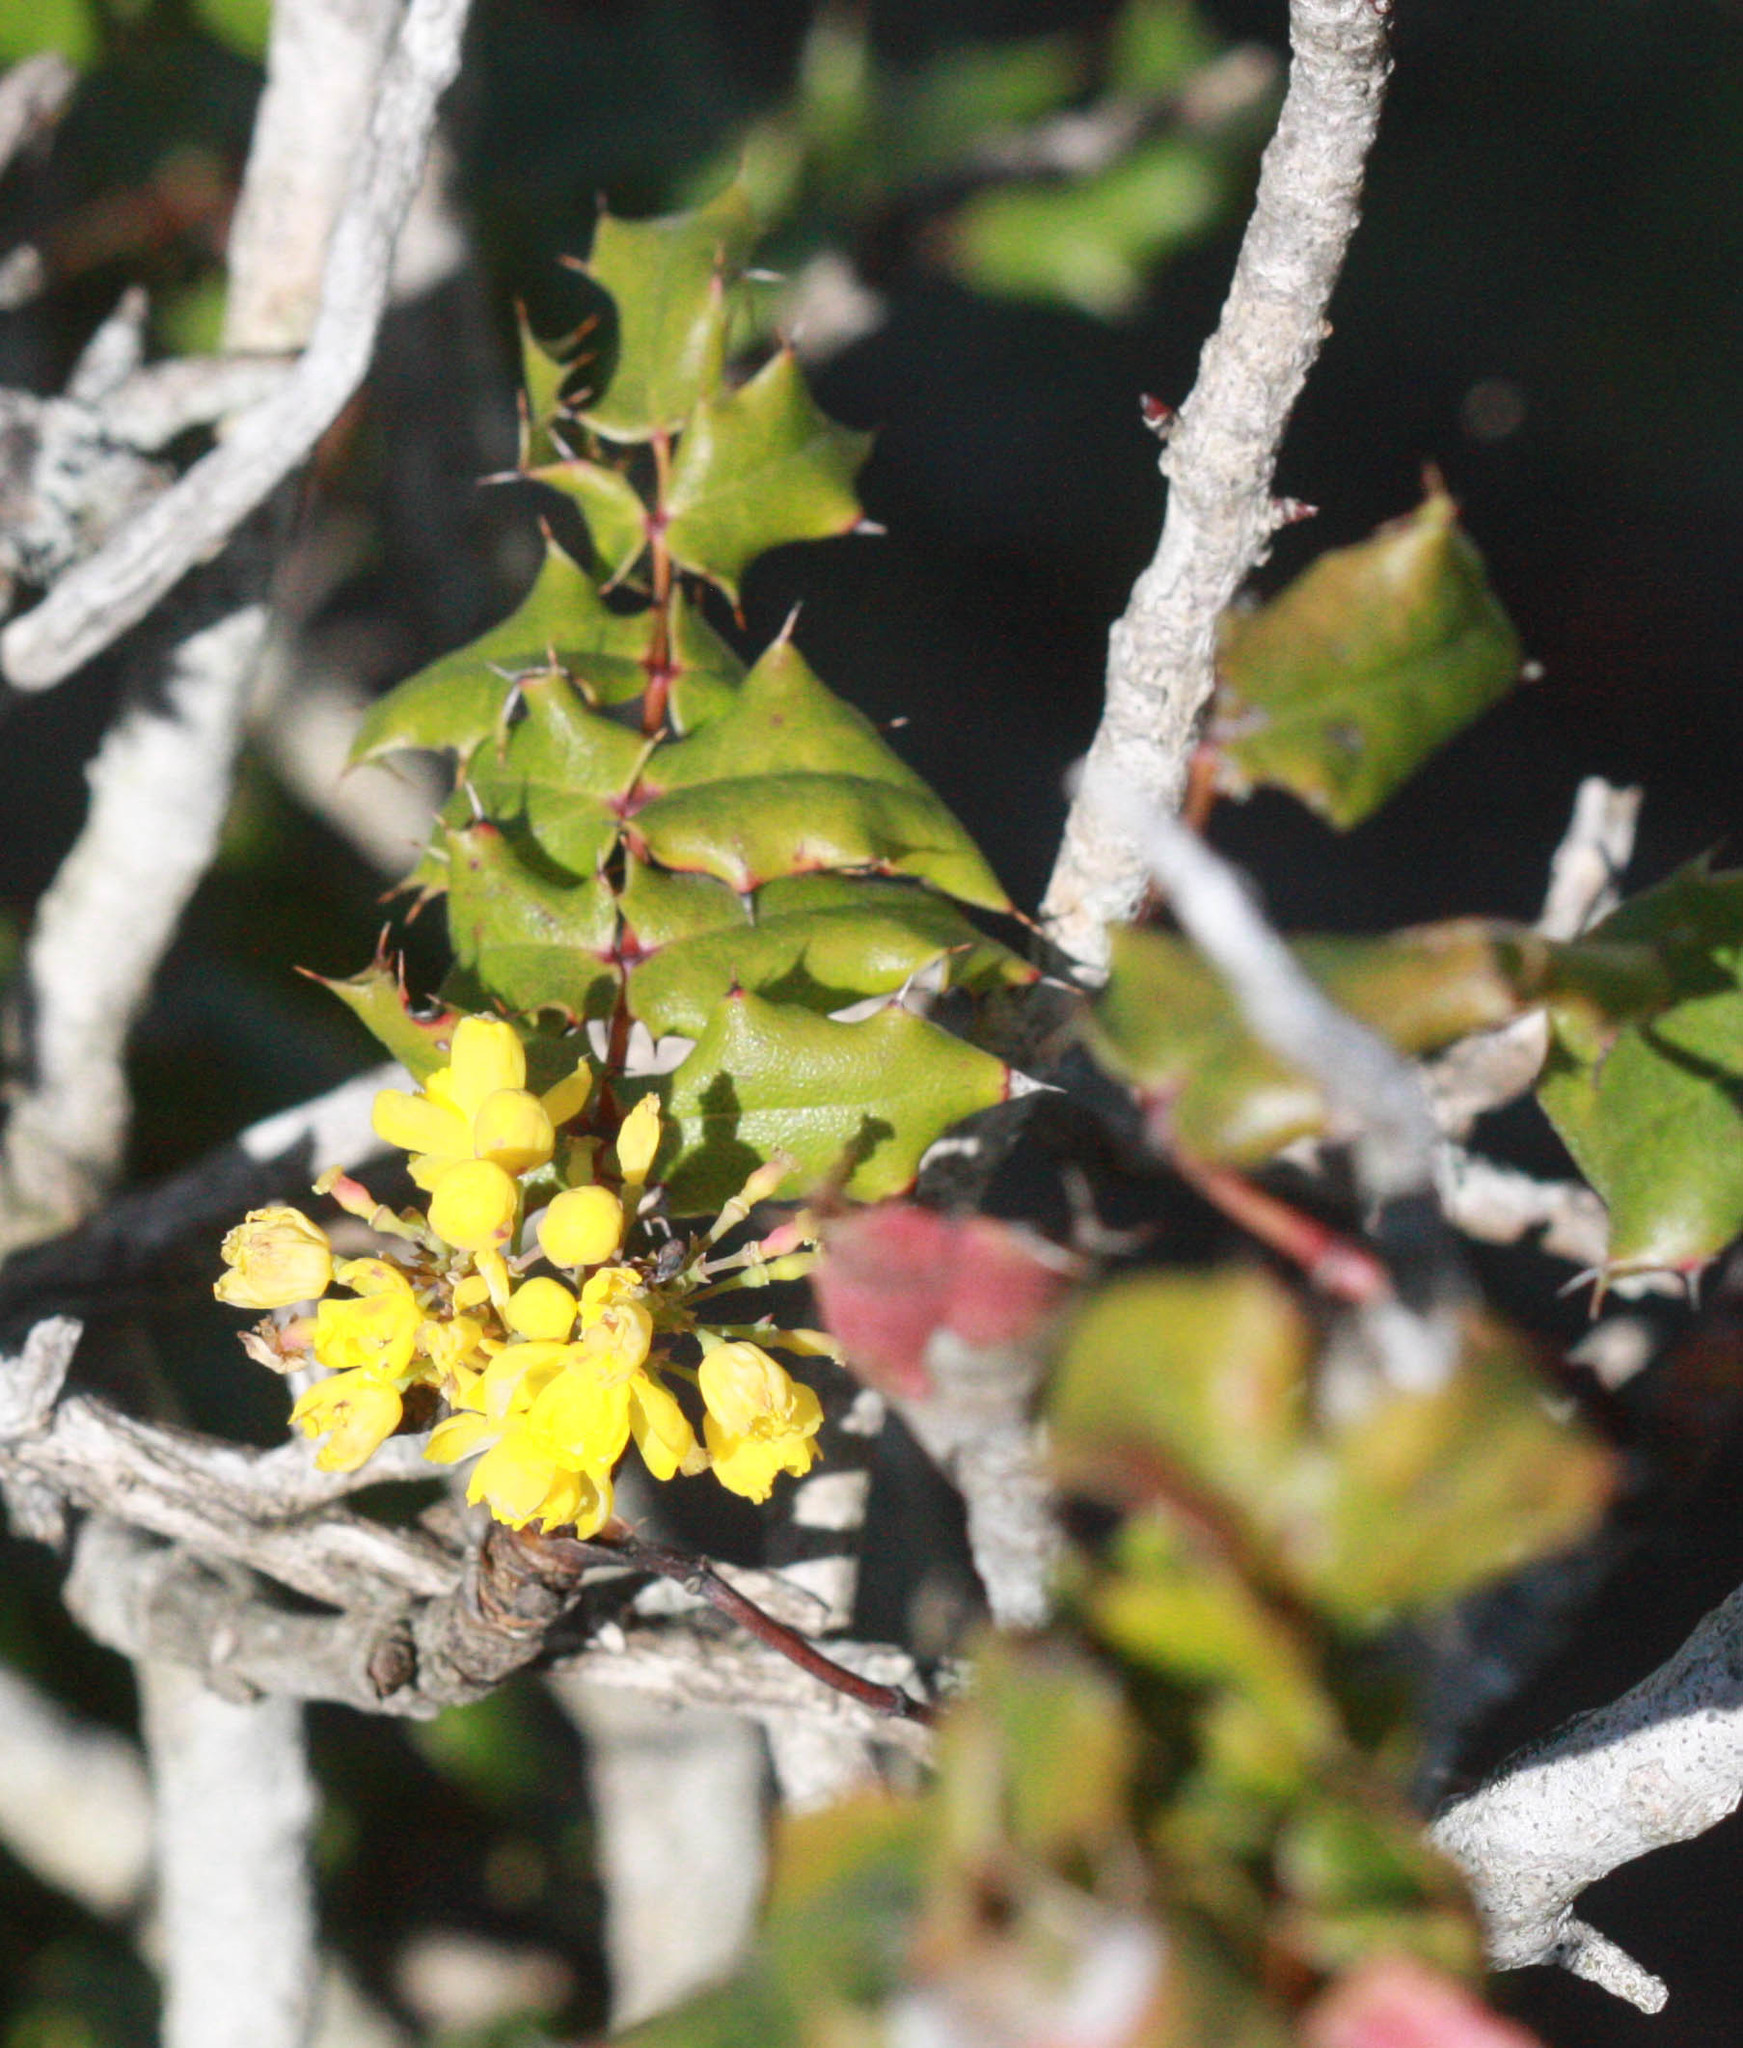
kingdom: Plantae
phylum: Tracheophyta
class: Magnoliopsida
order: Ranunculales
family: Berberidaceae
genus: Mahonia
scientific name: Mahonia
